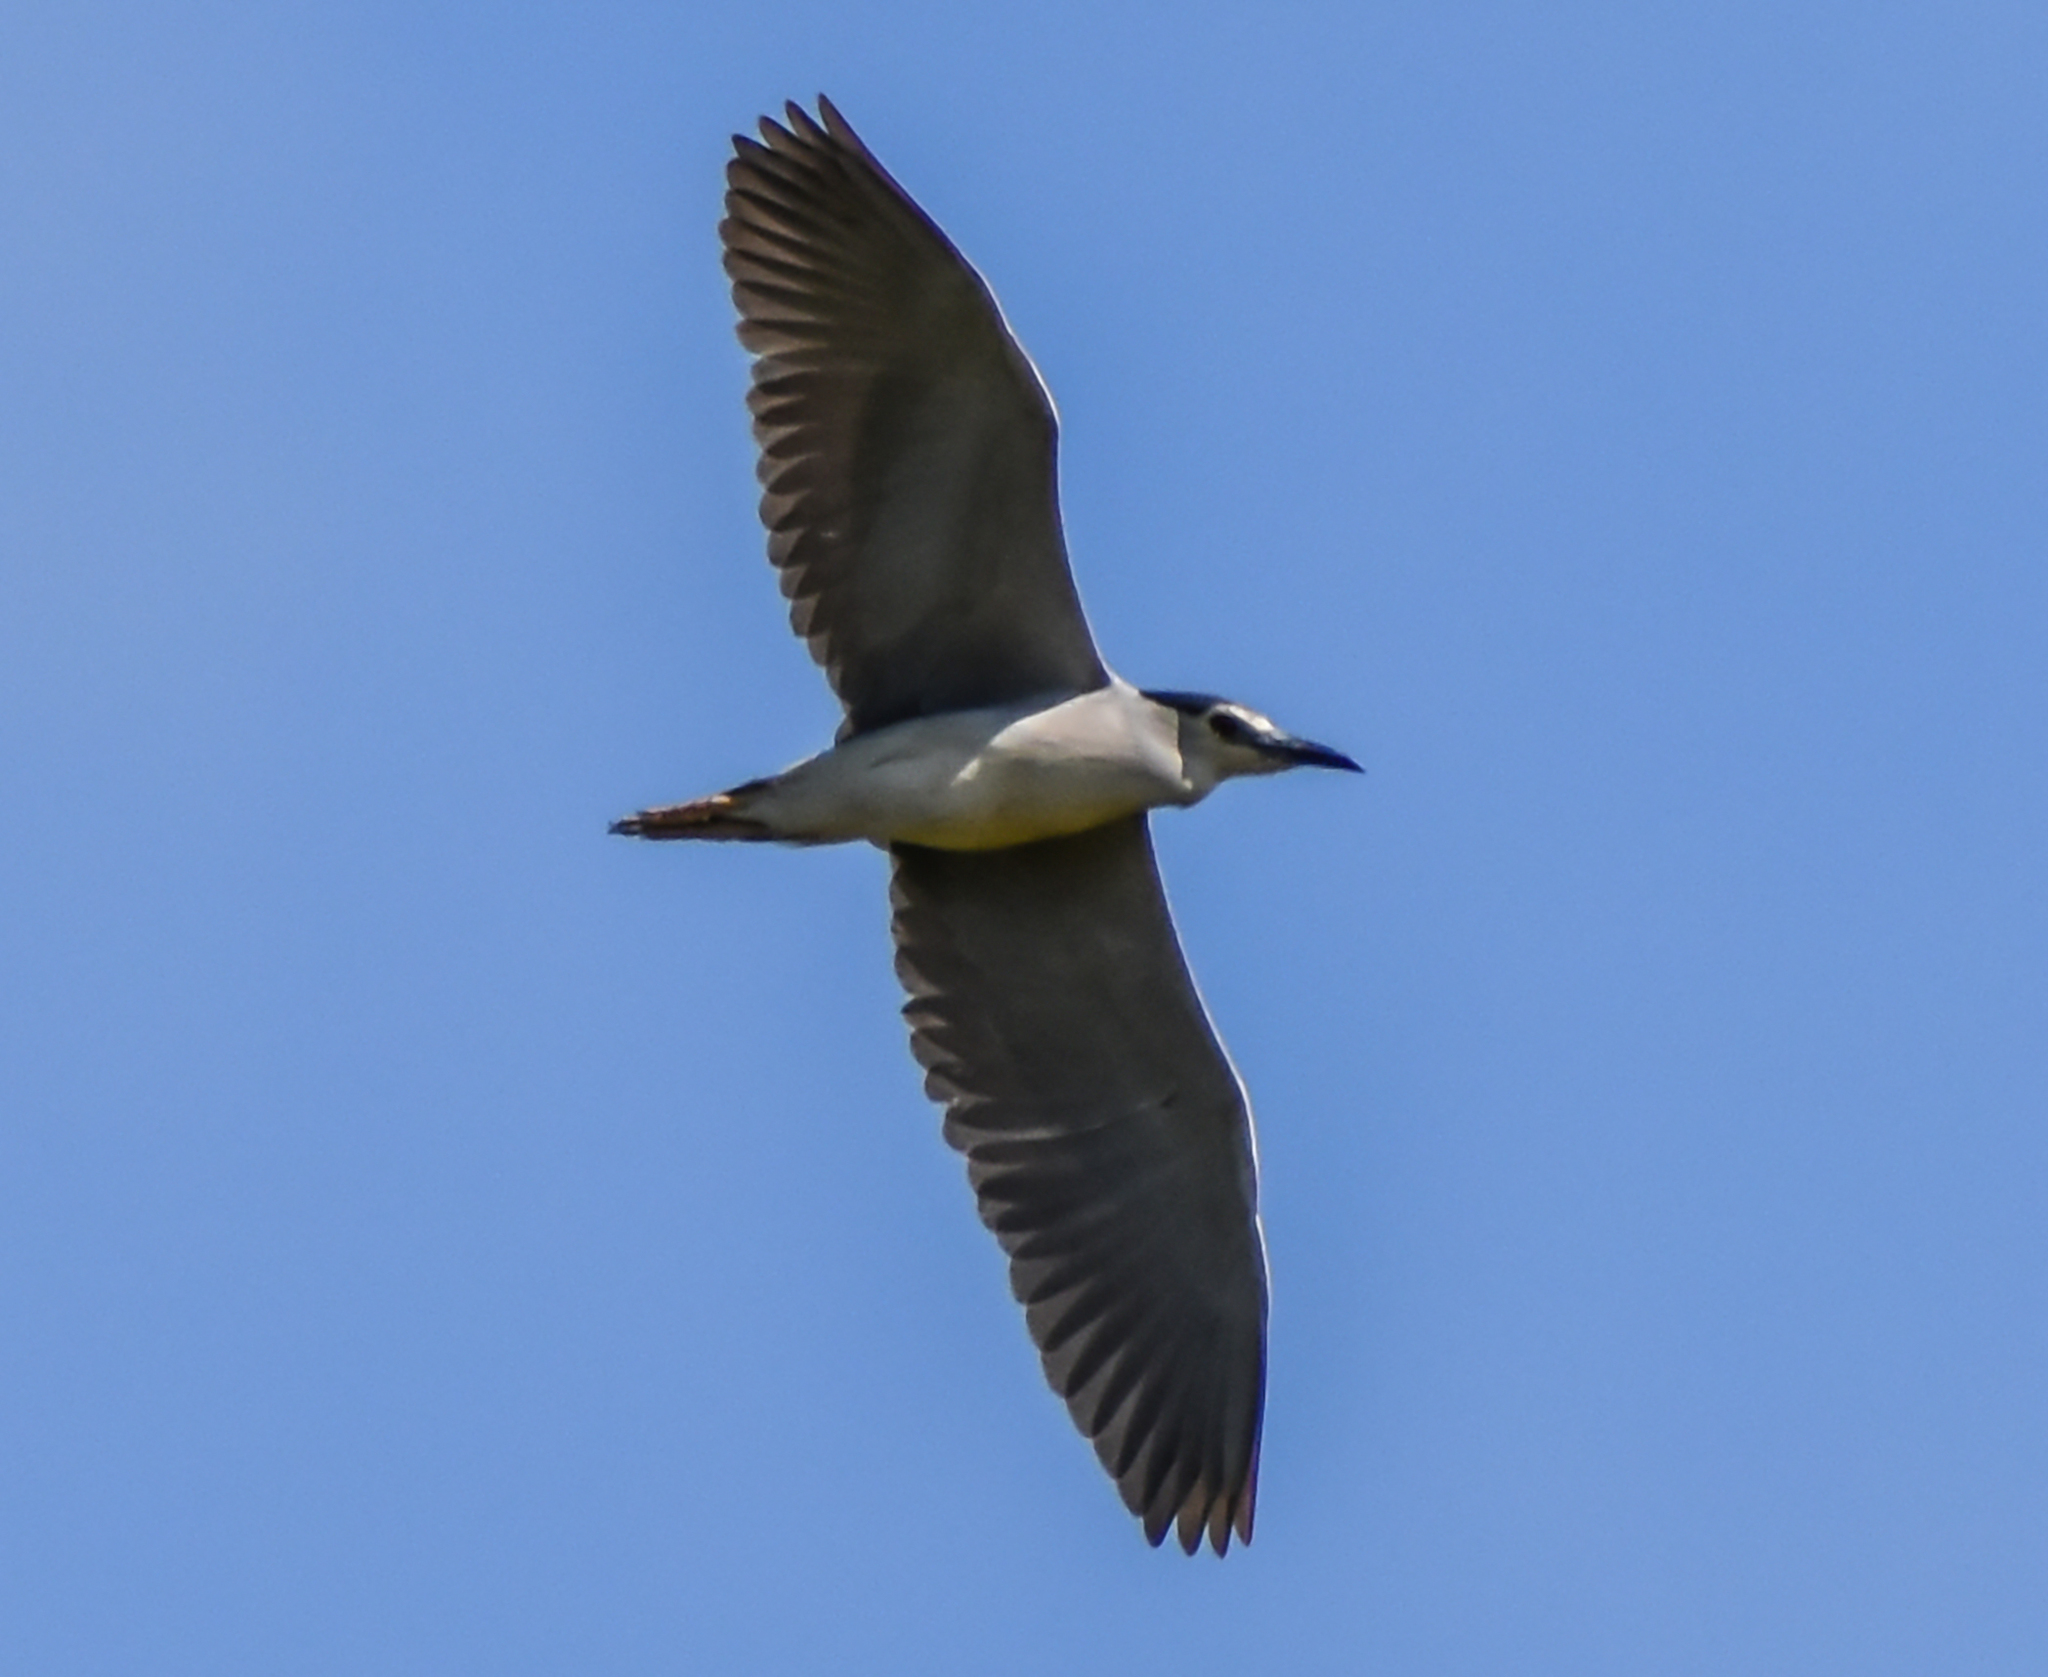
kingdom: Animalia
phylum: Chordata
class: Aves
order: Pelecaniformes
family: Ardeidae
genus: Nycticorax
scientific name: Nycticorax nycticorax
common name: Black-crowned night heron
